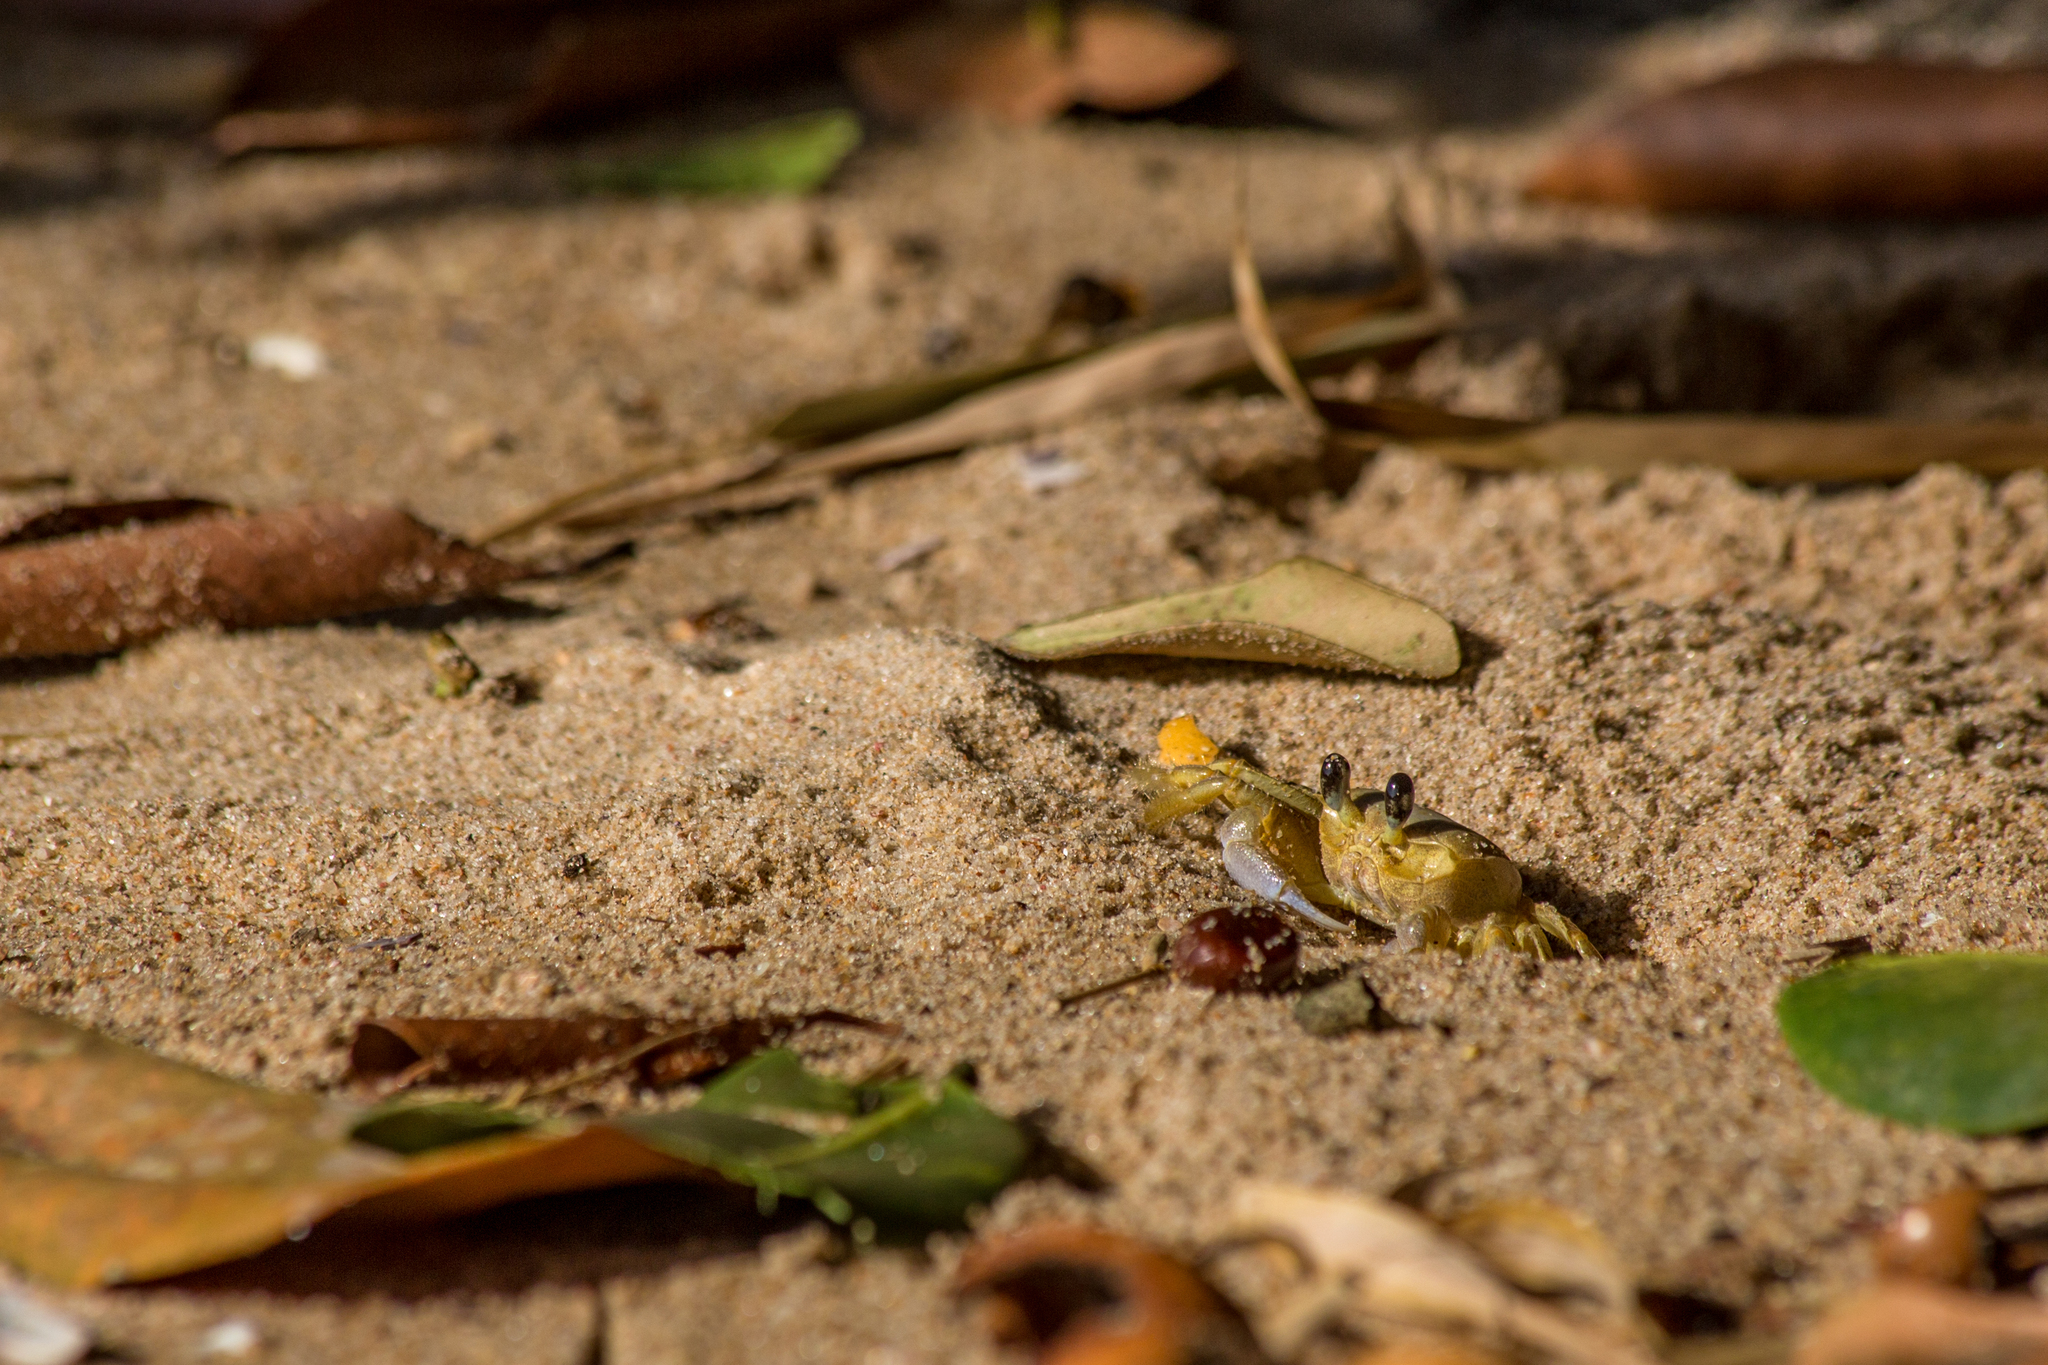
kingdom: Animalia
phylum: Arthropoda
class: Malacostraca
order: Decapoda
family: Ocypodidae
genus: Ocypode
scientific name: Ocypode quadrata
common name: Ghost crab
